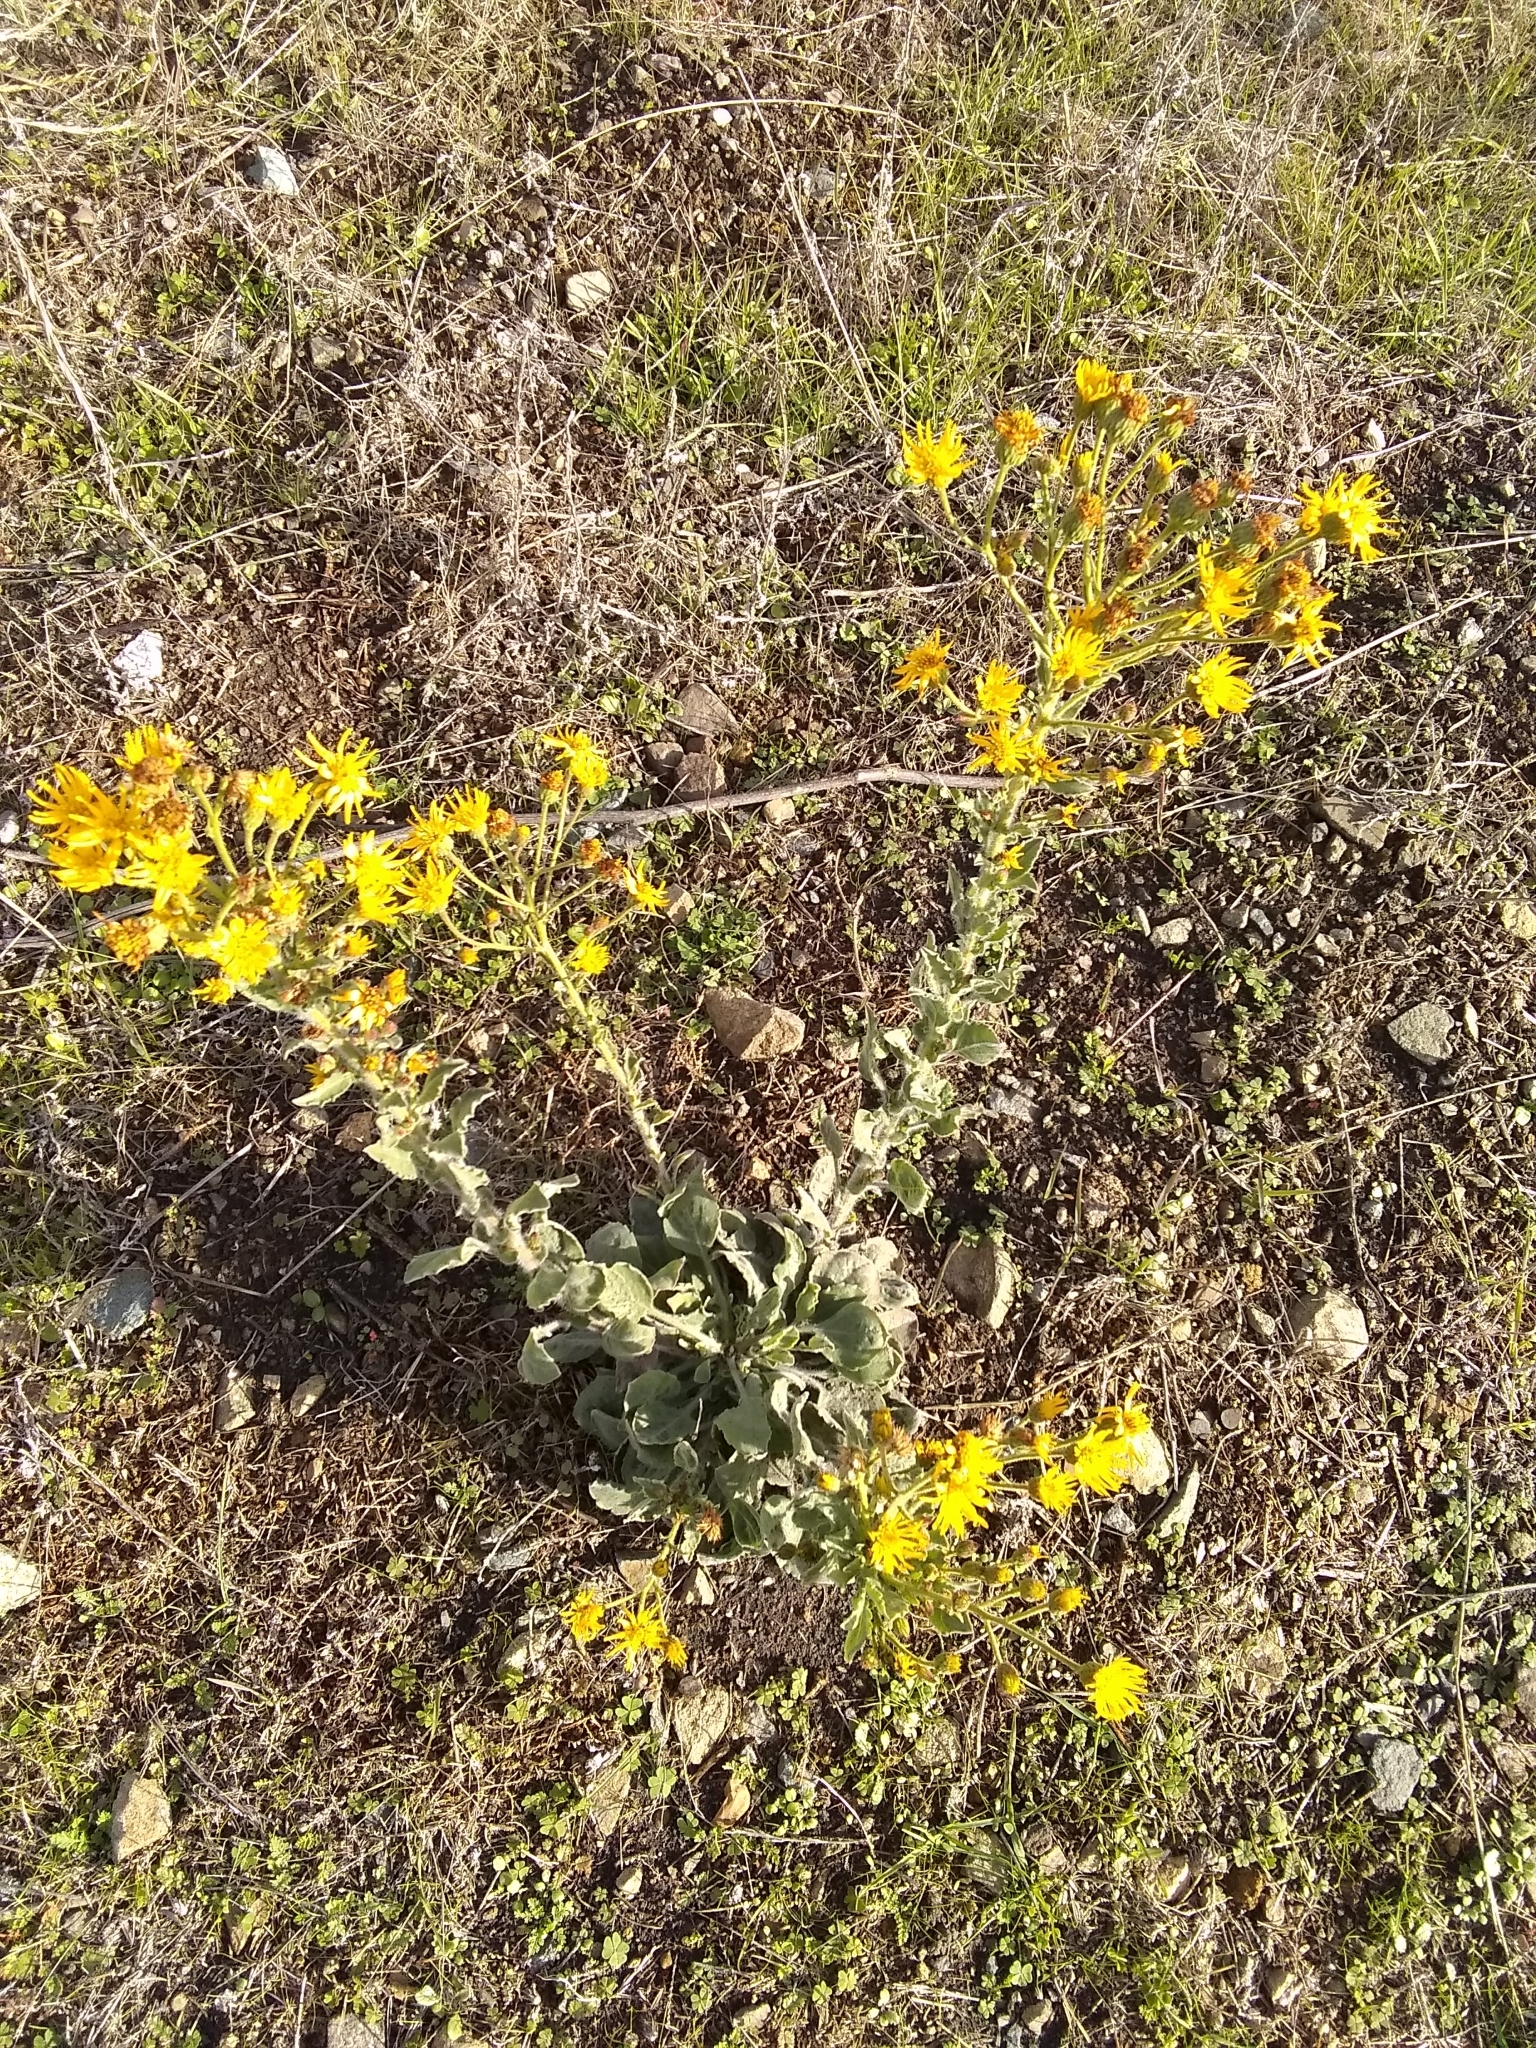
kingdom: Plantae
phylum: Tracheophyta
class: Magnoliopsida
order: Asterales
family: Asteraceae
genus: Heterotheca
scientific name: Heterotheca grandiflora
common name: Telegraphweed
